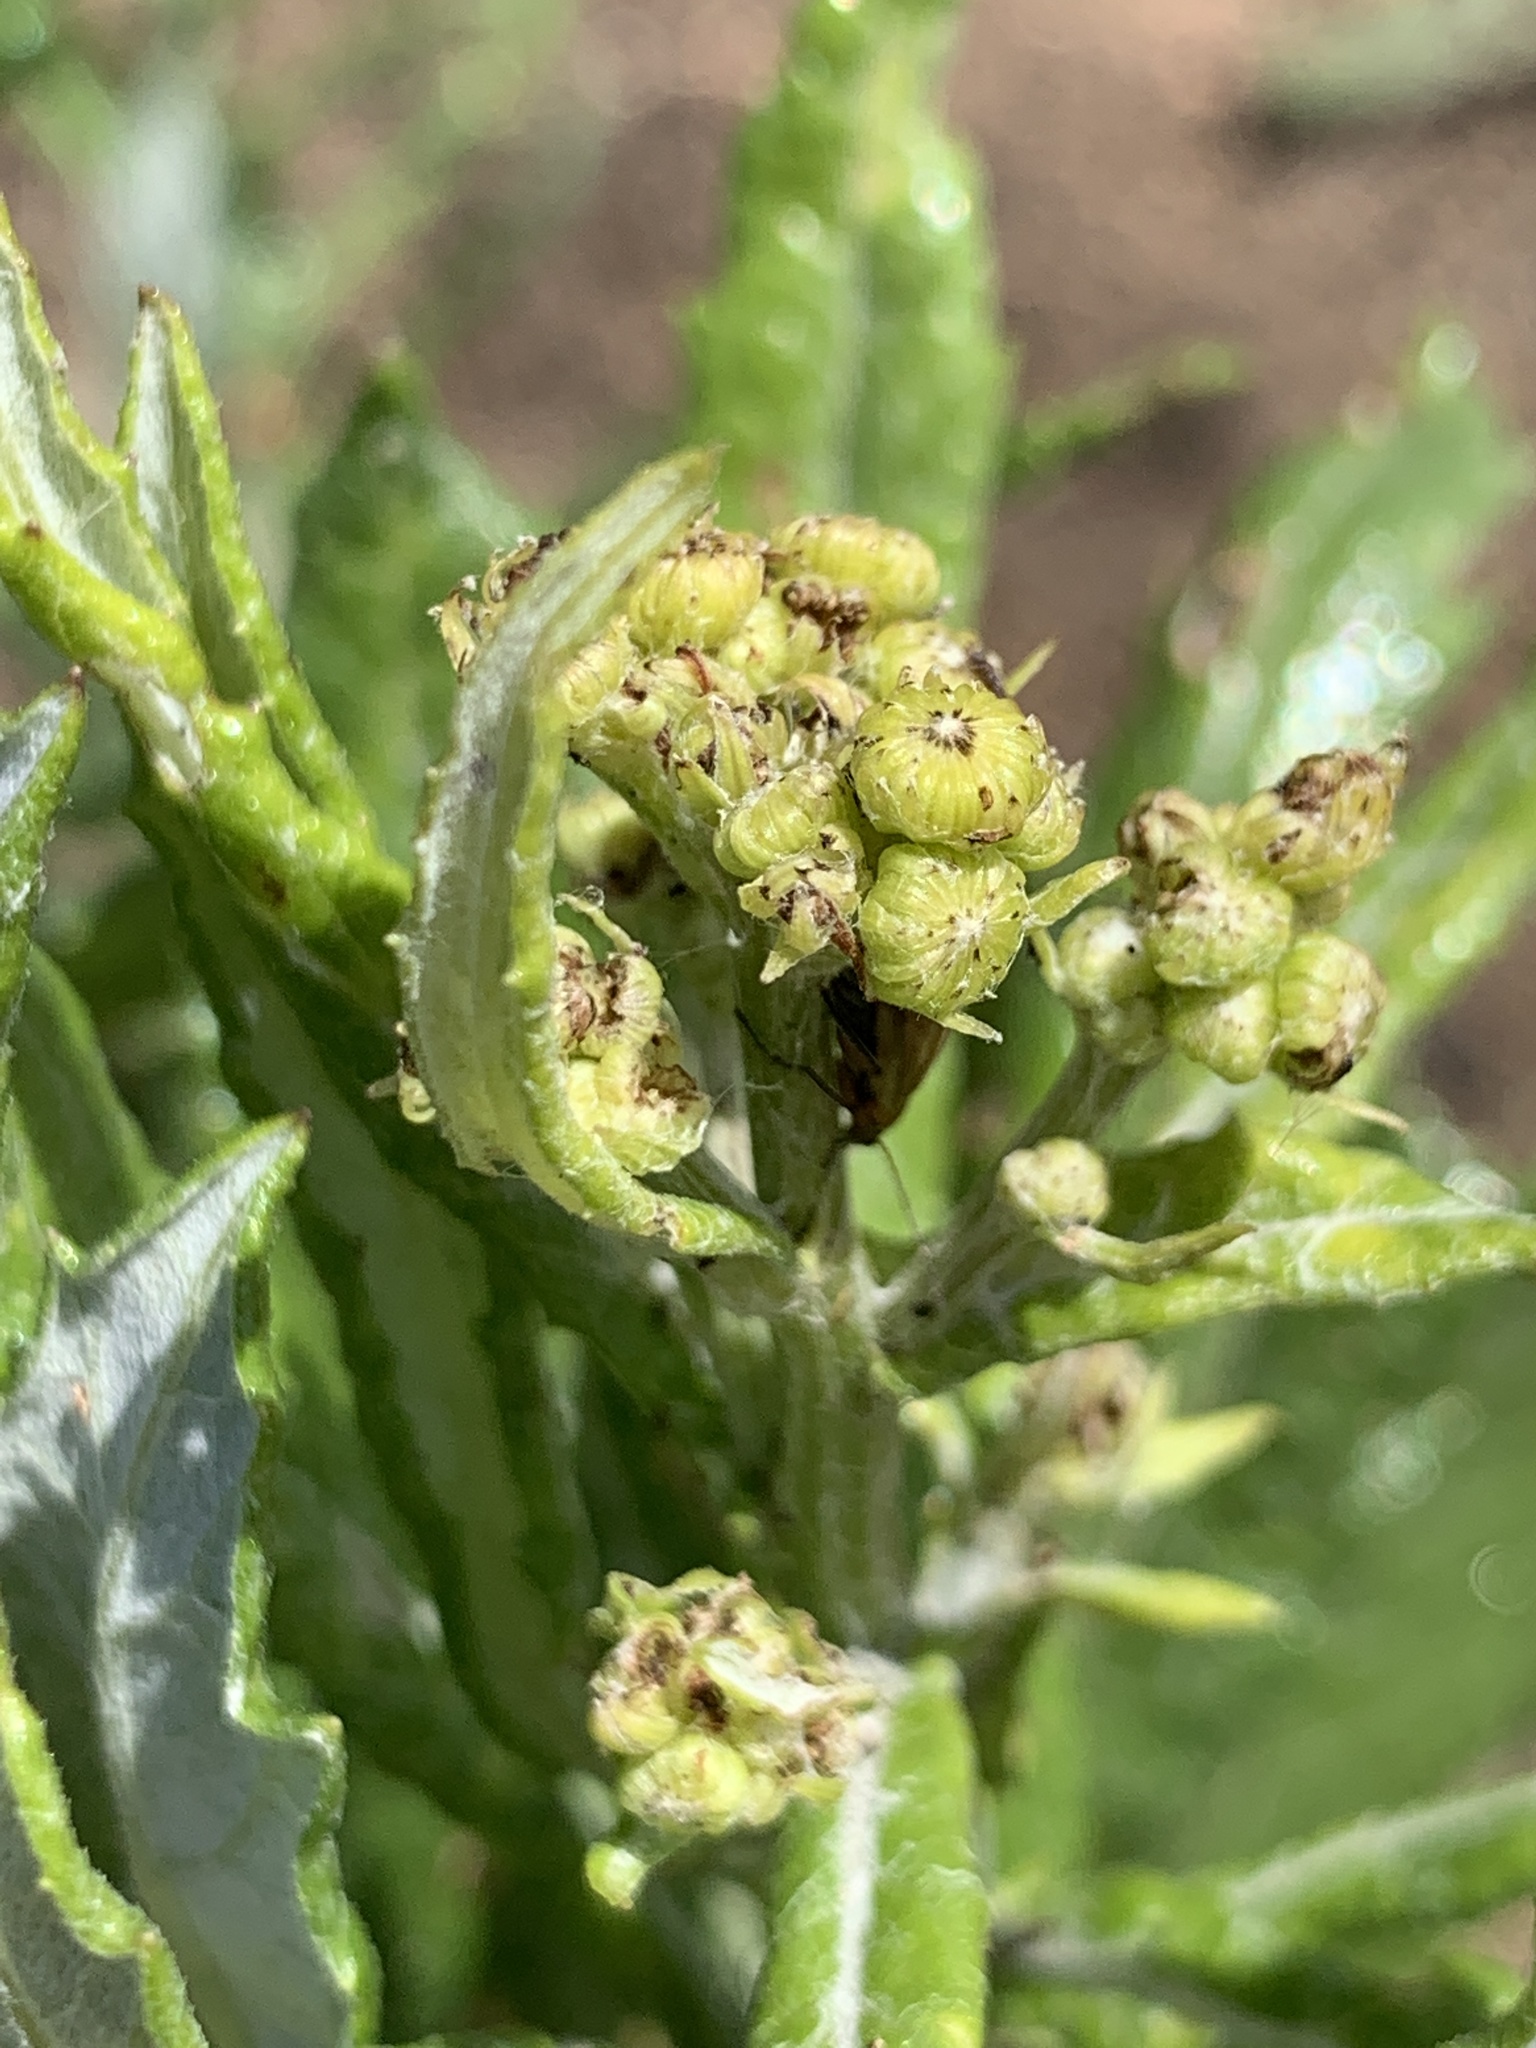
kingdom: Plantae
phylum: Tracheophyta
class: Magnoliopsida
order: Asterales
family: Asteraceae
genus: Senecio
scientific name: Senecio pterophorus
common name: Shoddy ragwort
